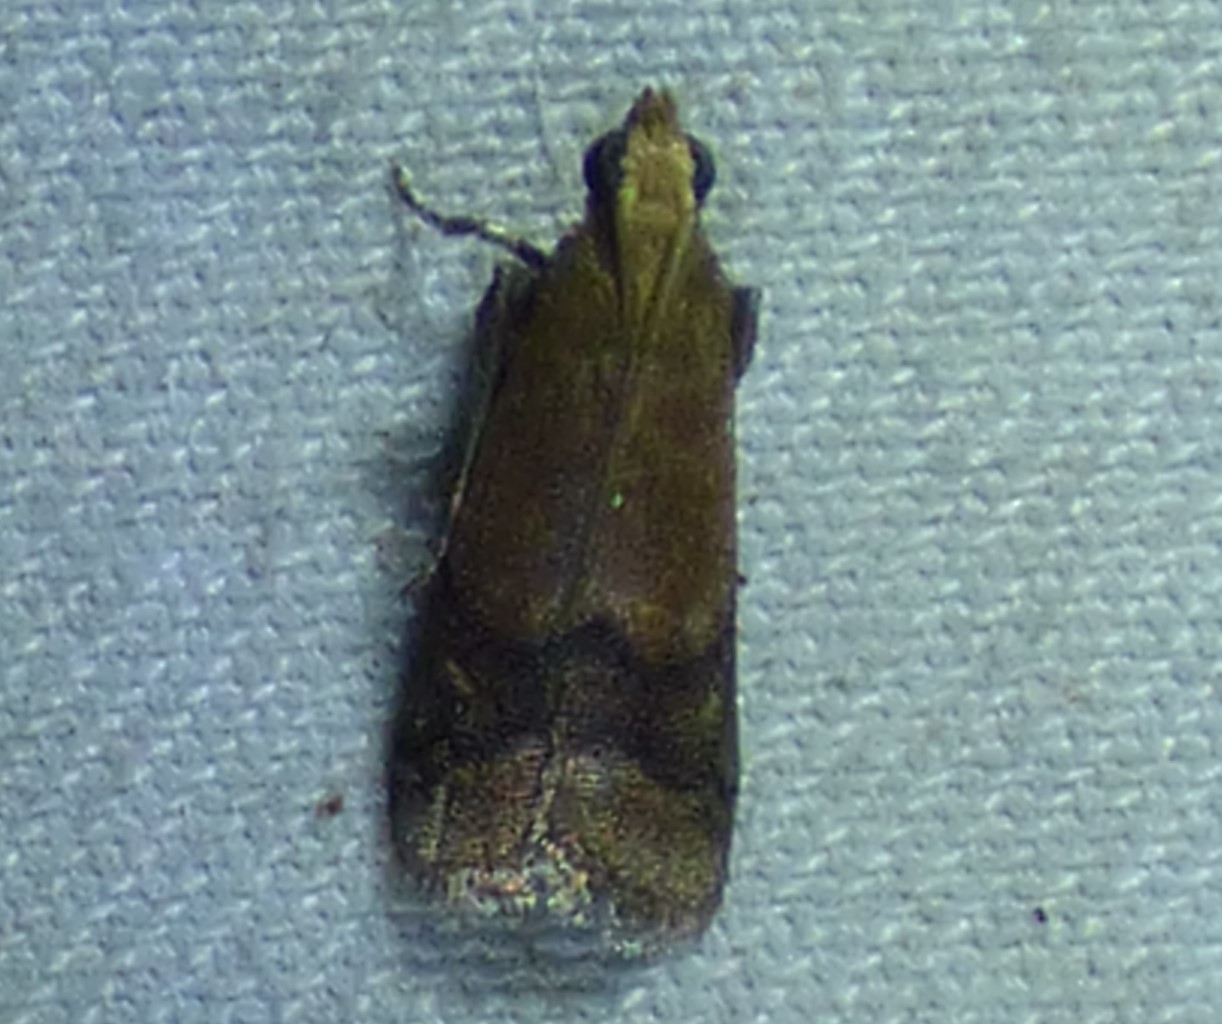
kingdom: Animalia
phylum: Arthropoda
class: Insecta
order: Lepidoptera
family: Pyralidae
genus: Eulogia
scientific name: Eulogia ochrifrontella
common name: Broad-banded eulogia moth
